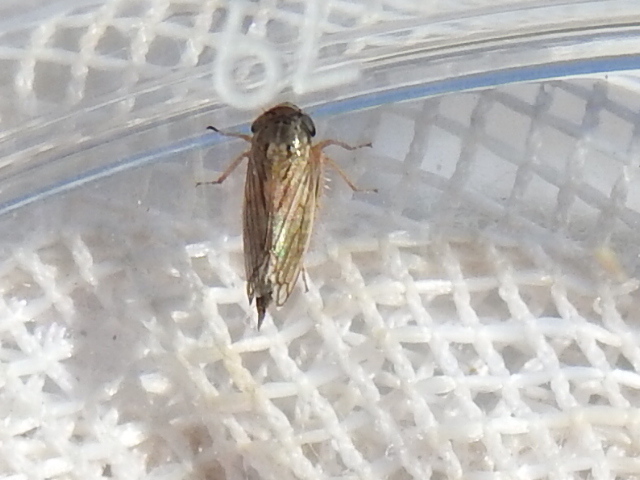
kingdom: Animalia
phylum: Arthropoda
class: Insecta
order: Hemiptera
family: Cicadellidae
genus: Exitianus
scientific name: Exitianus exitiosus
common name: Gray lawn leafhopper
